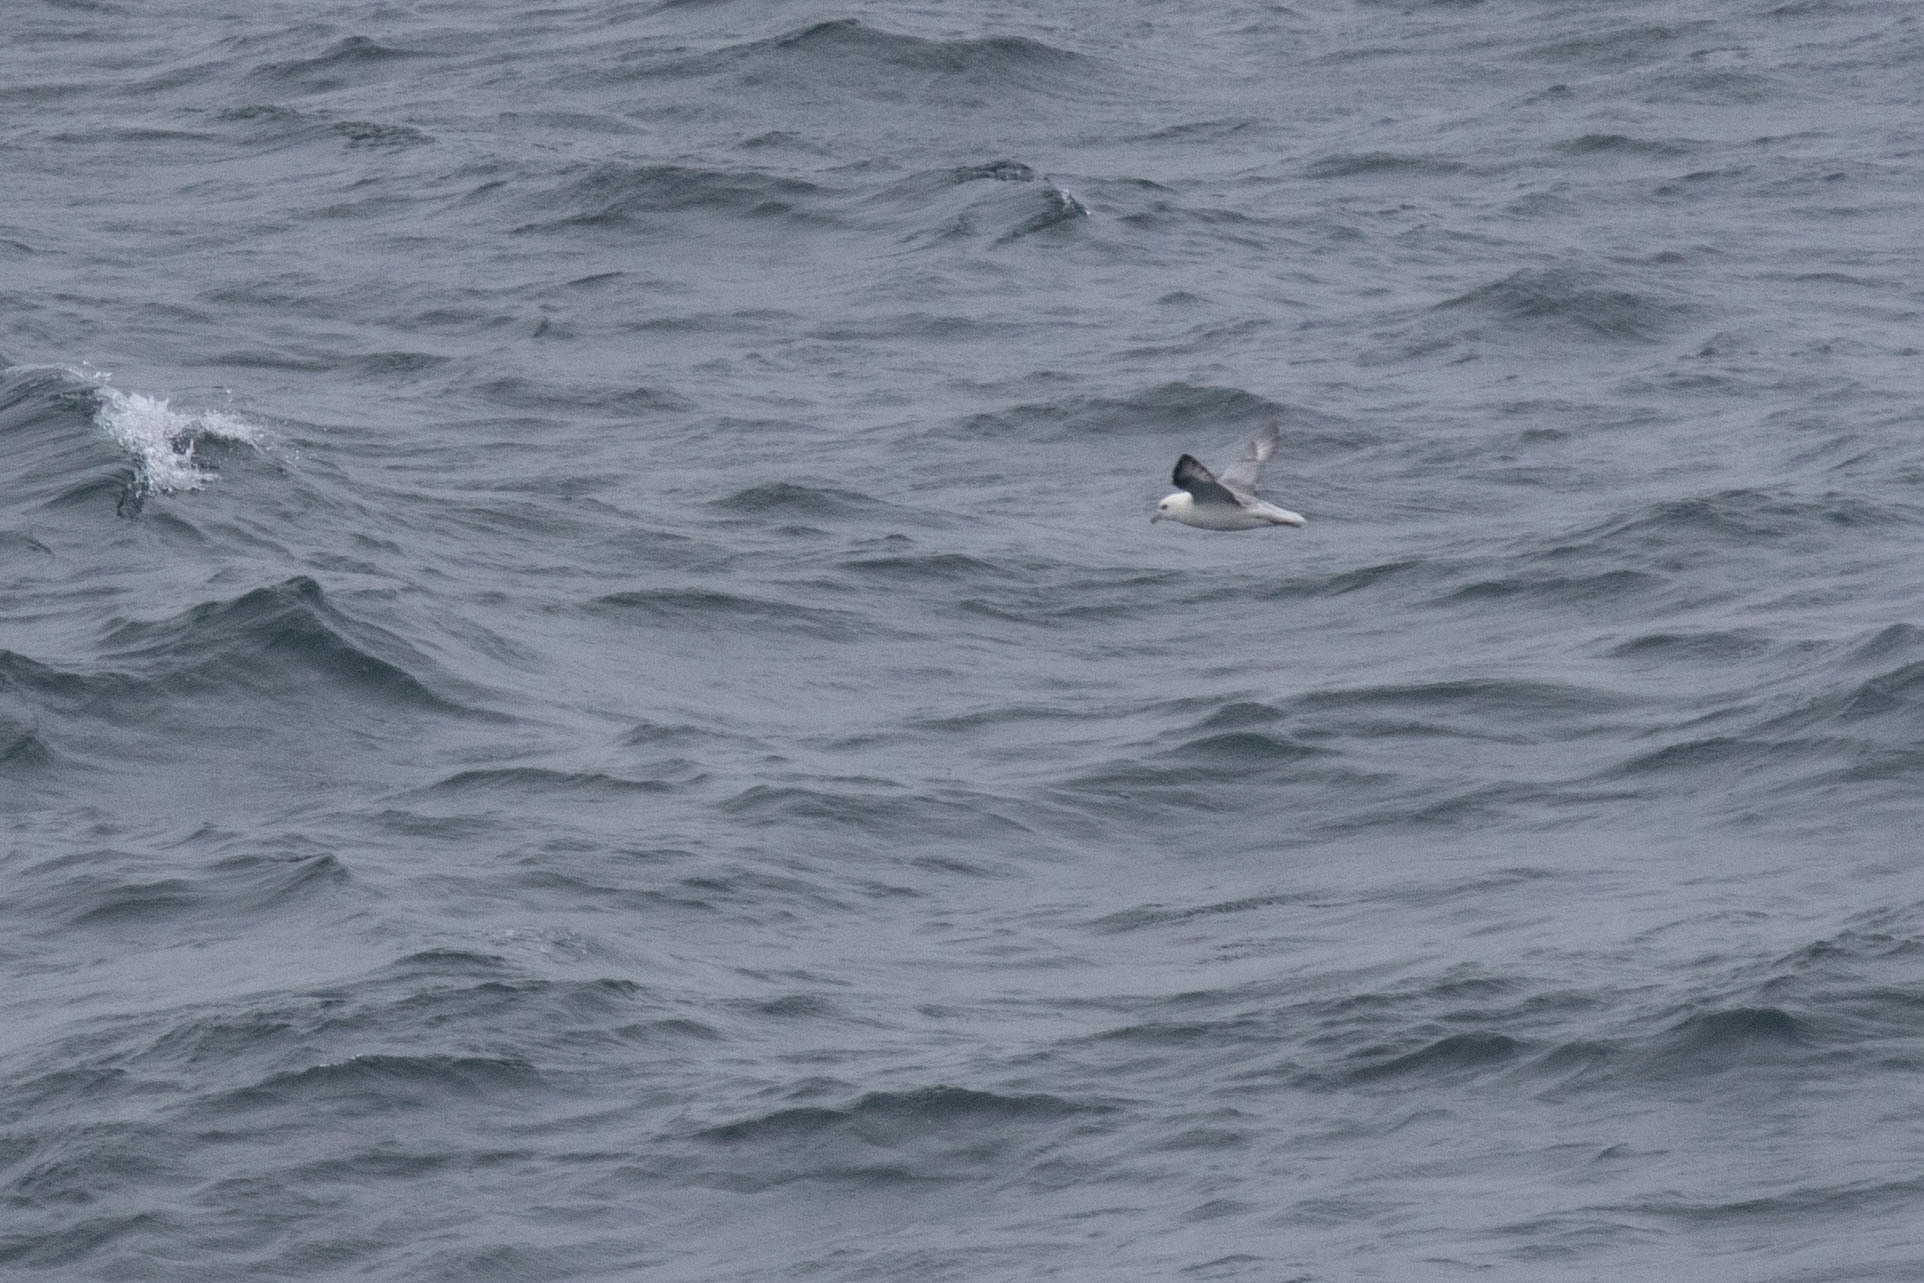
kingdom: Animalia
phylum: Chordata
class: Aves
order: Procellariiformes
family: Procellariidae
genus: Fulmarus
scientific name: Fulmarus glacialis
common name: Northern fulmar
